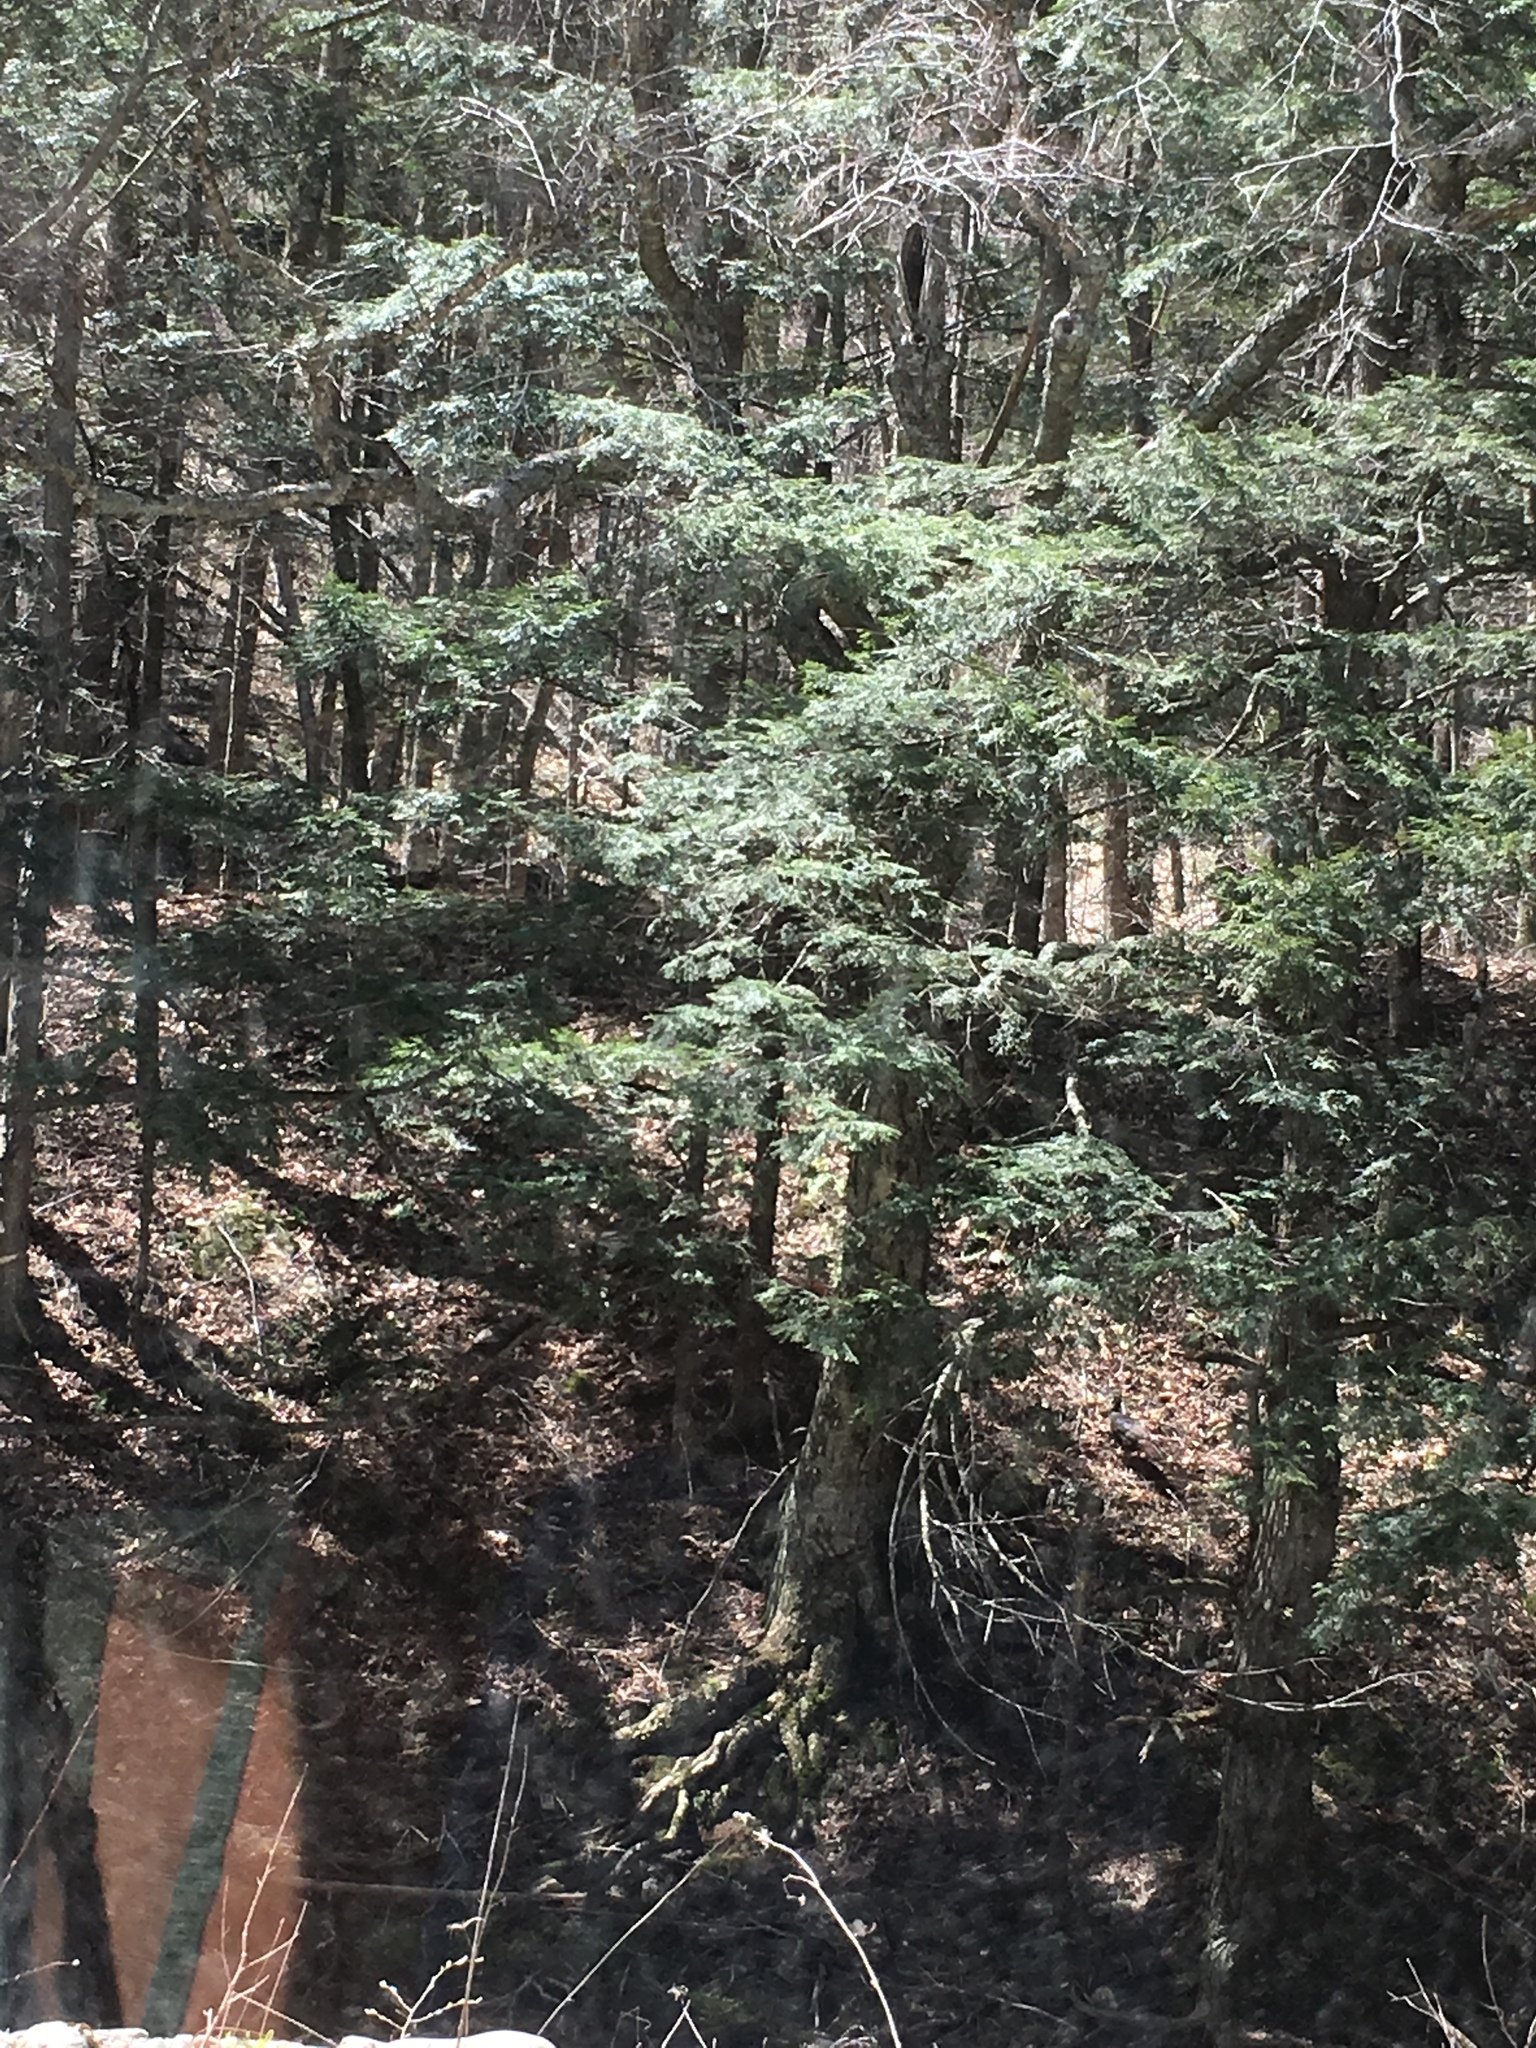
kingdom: Plantae
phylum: Tracheophyta
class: Pinopsida
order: Pinales
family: Pinaceae
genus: Tsuga
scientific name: Tsuga canadensis
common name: Eastern hemlock
